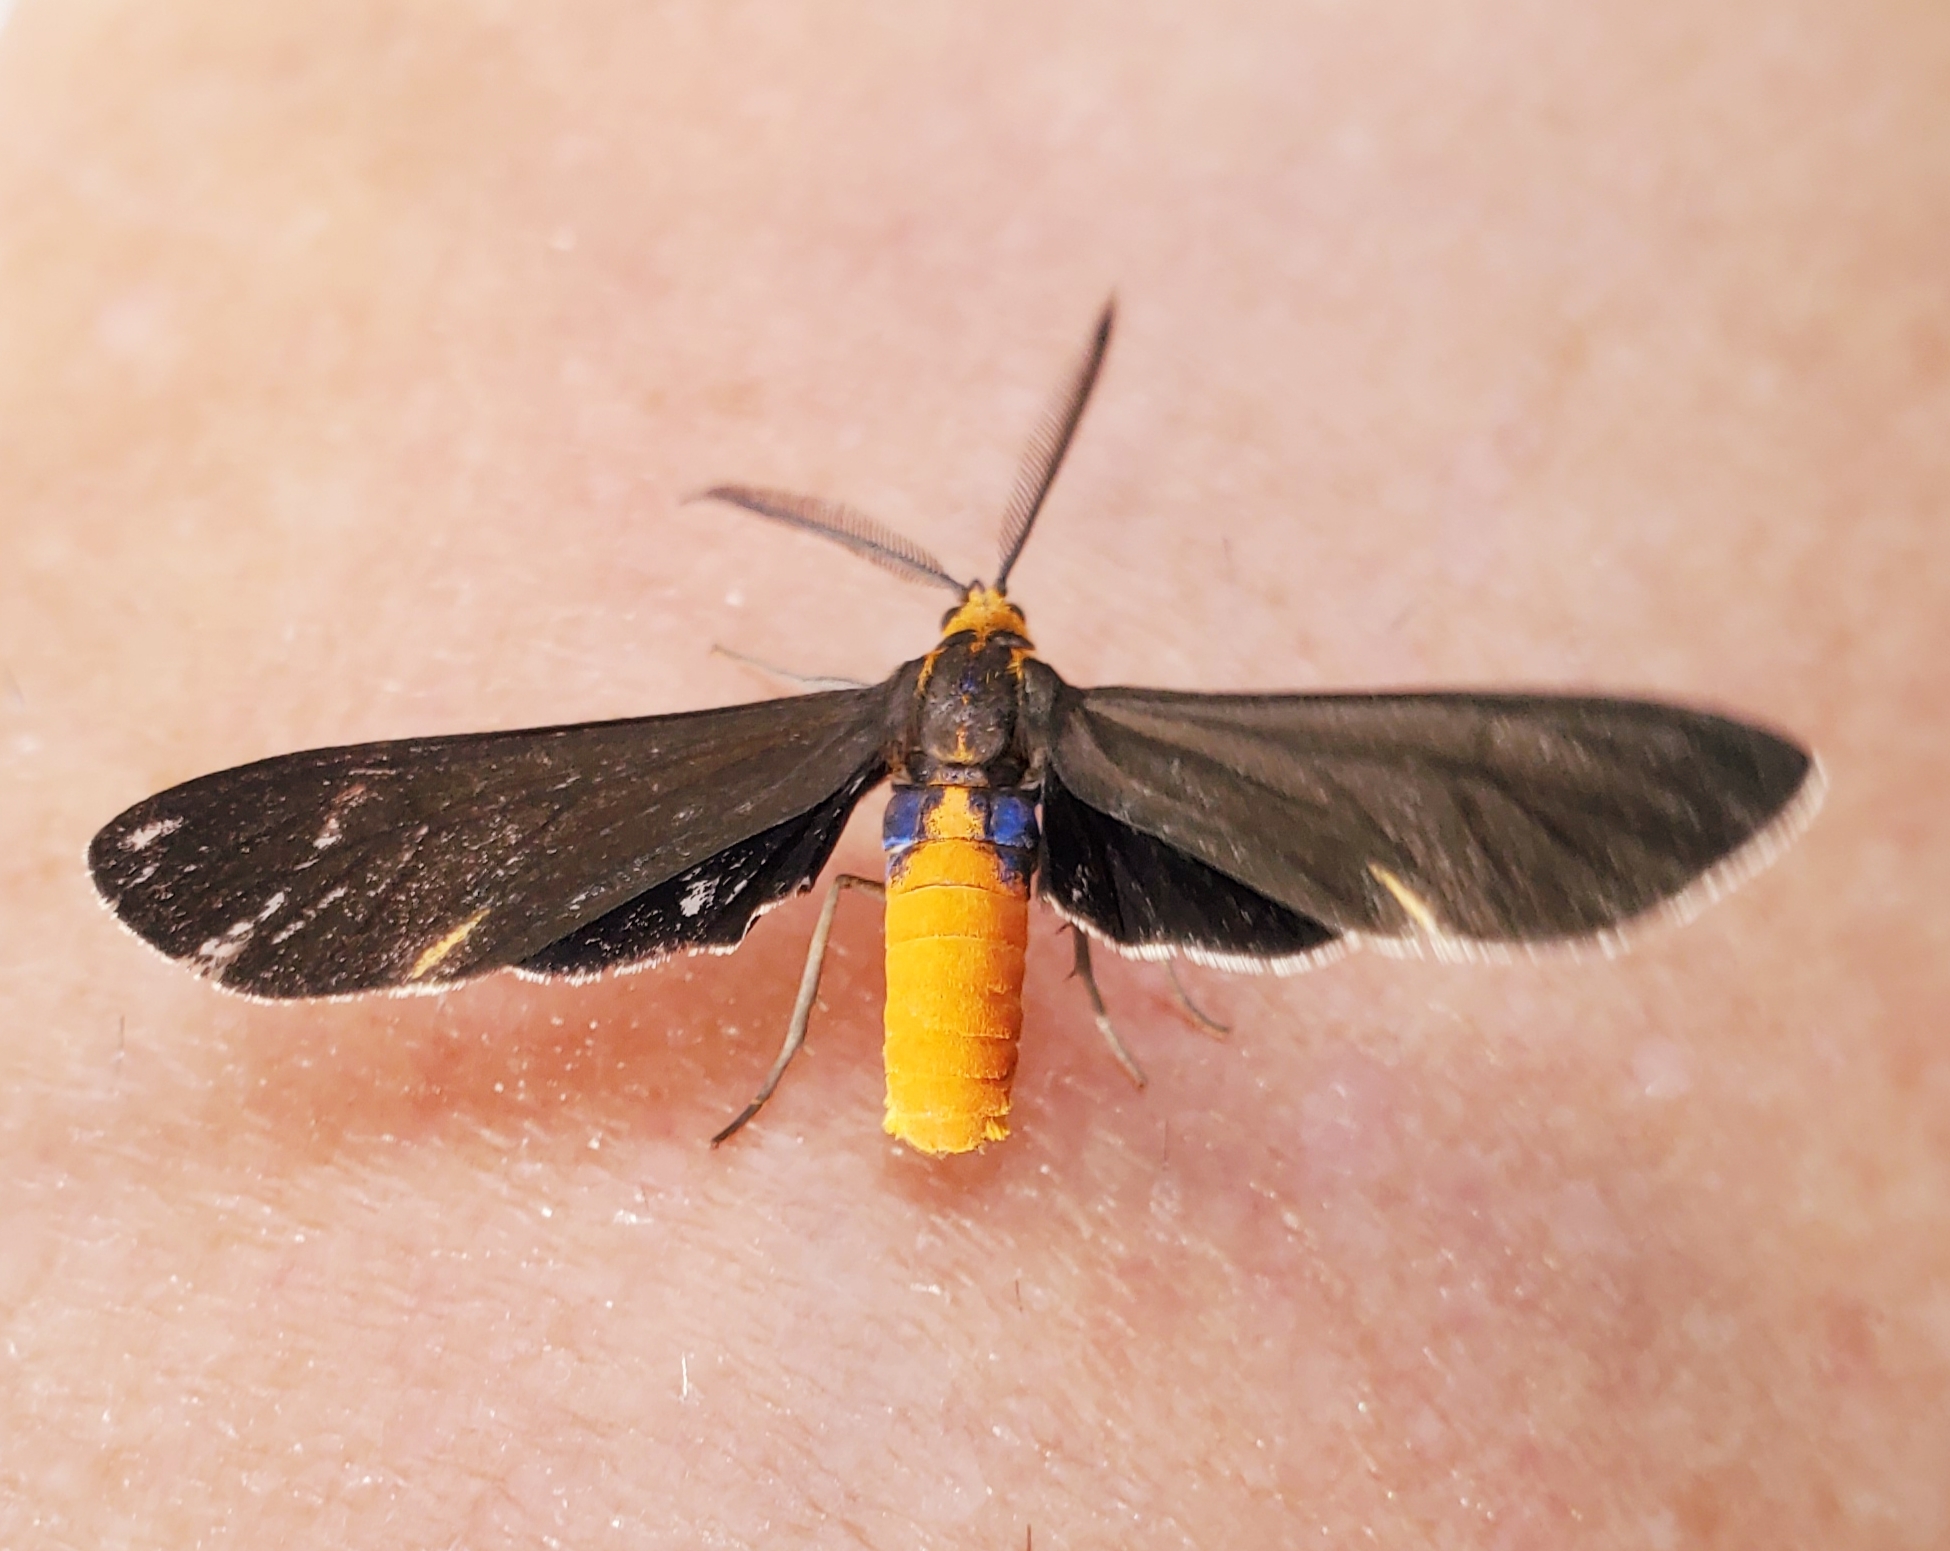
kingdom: Animalia
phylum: Arthropoda
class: Insecta
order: Lepidoptera
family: Erebidae
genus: Dahana
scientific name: Dahana atripennis
